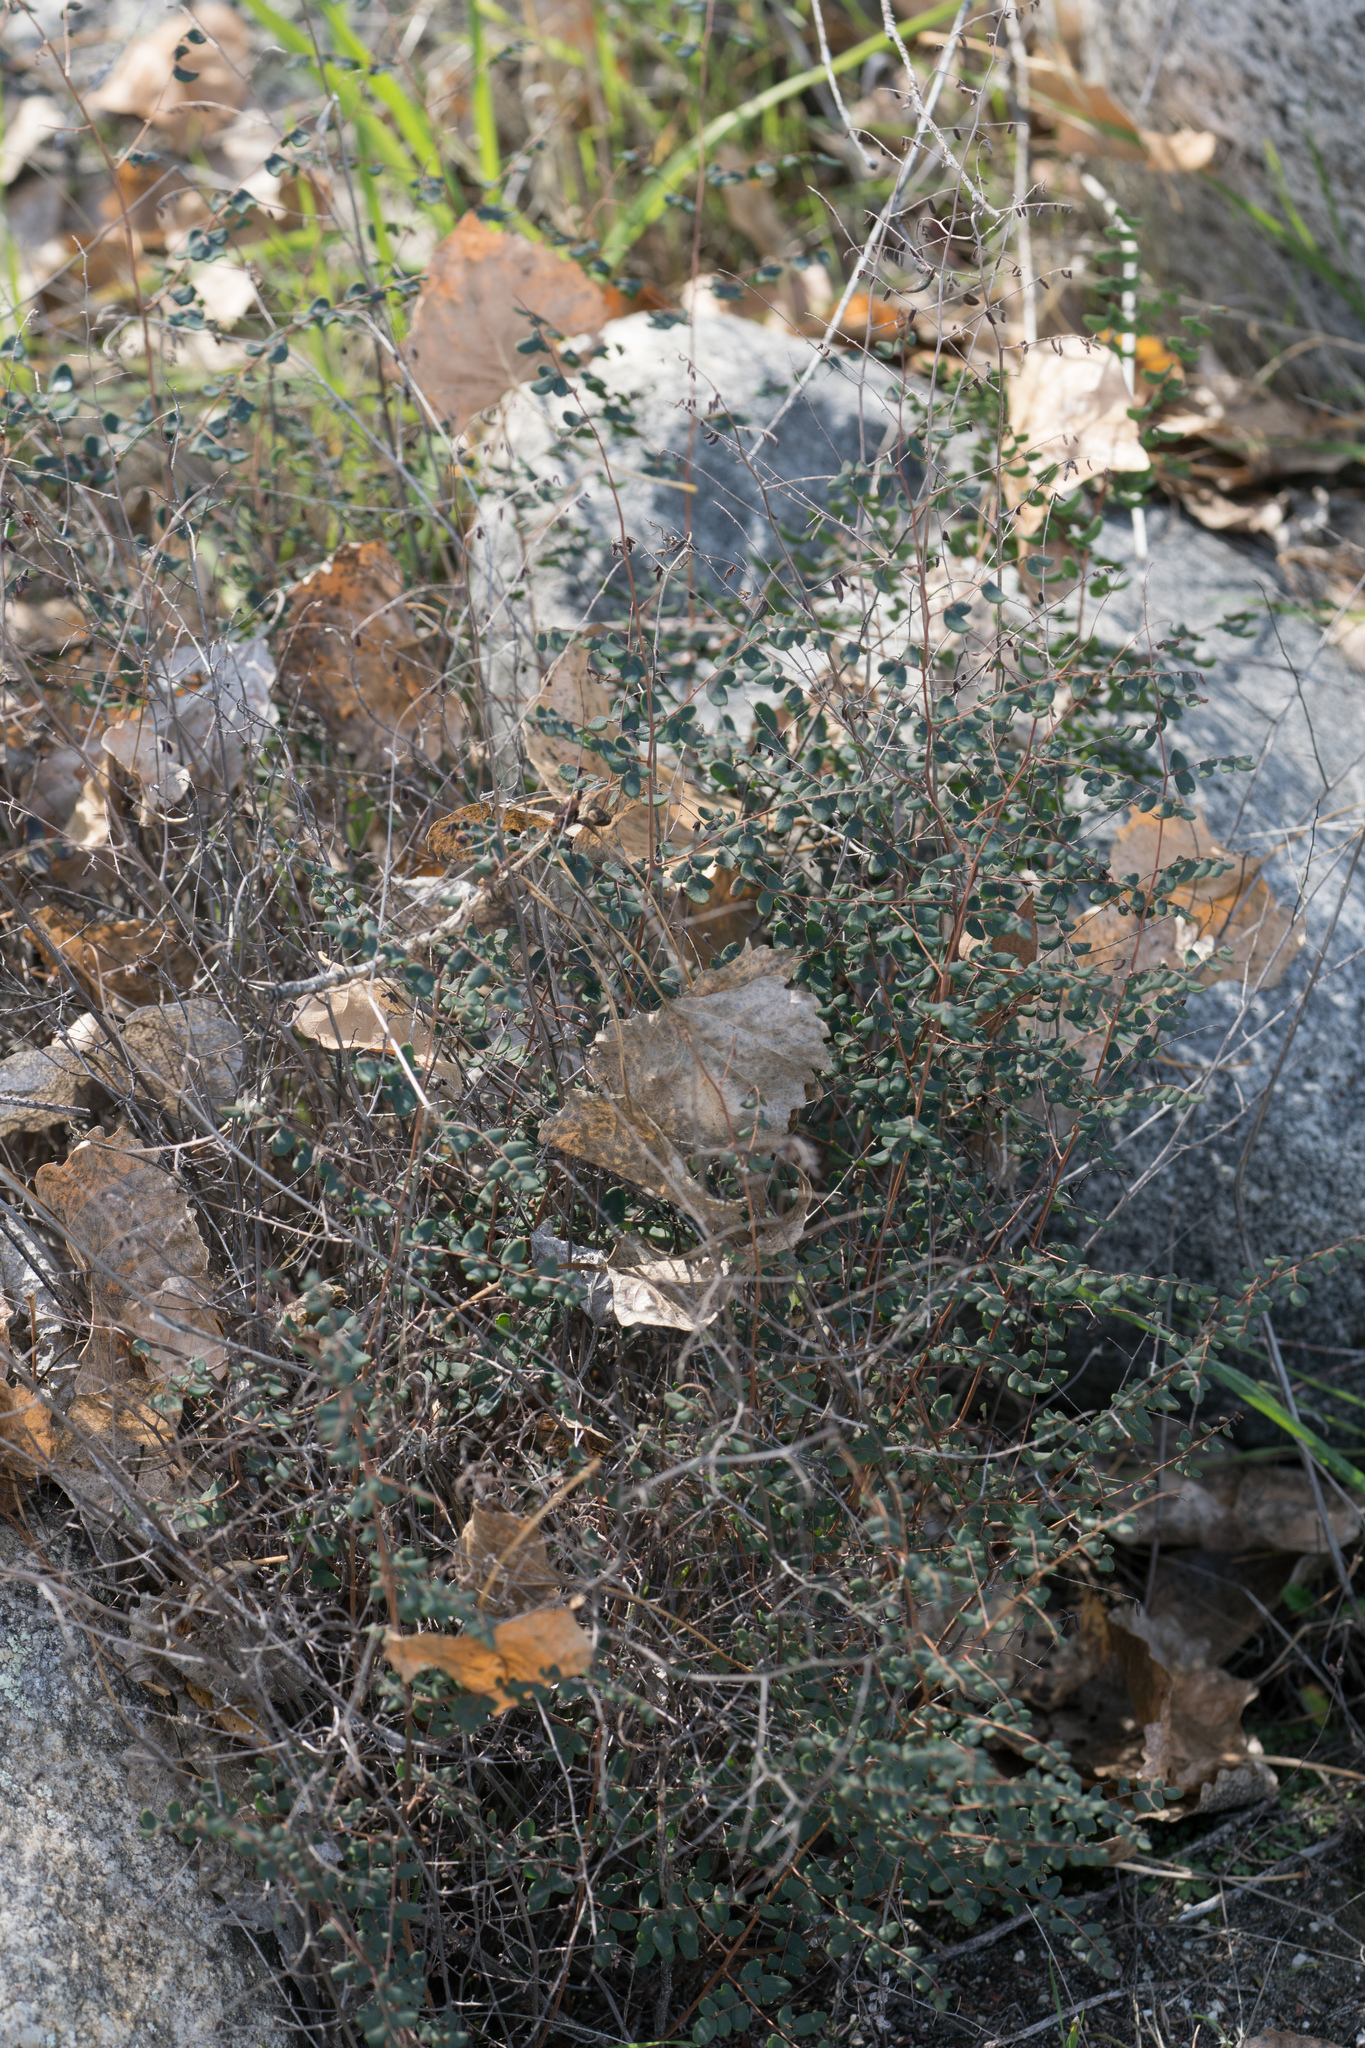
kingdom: Plantae
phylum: Tracheophyta
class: Polypodiopsida
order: Polypodiales
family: Pteridaceae
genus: Pellaea
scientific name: Pellaea andromedifolia
